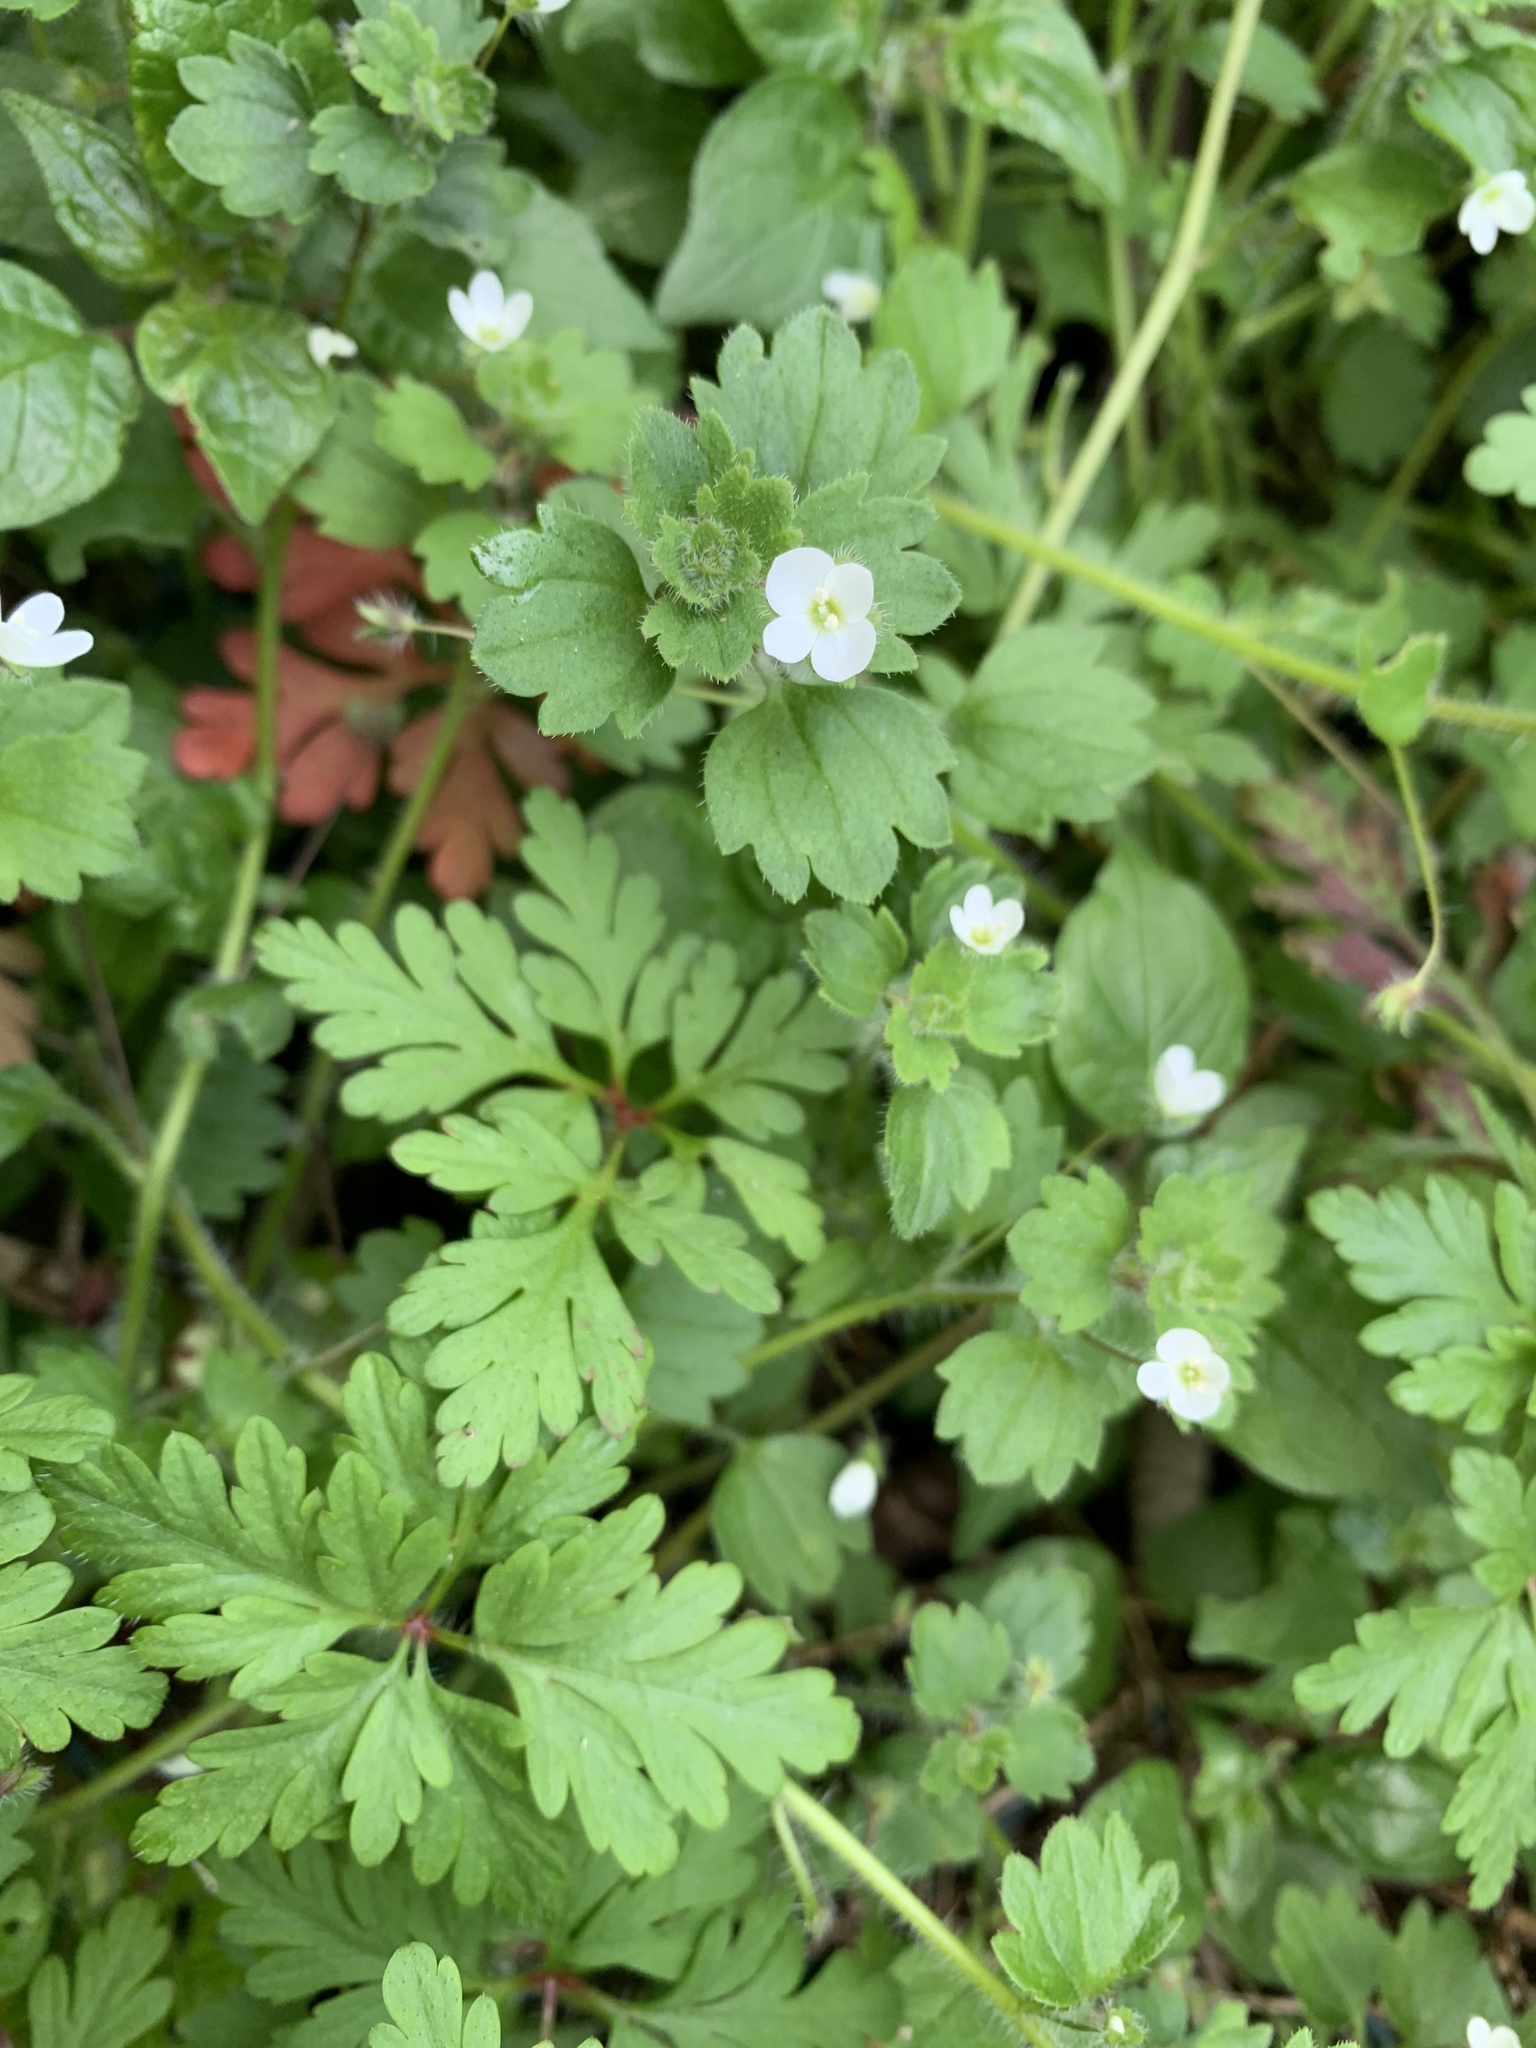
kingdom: Plantae
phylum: Tracheophyta
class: Magnoliopsida
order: Lamiales
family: Plantaginaceae
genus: Veronica
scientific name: Veronica cymbalaria
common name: Pale speedwell
